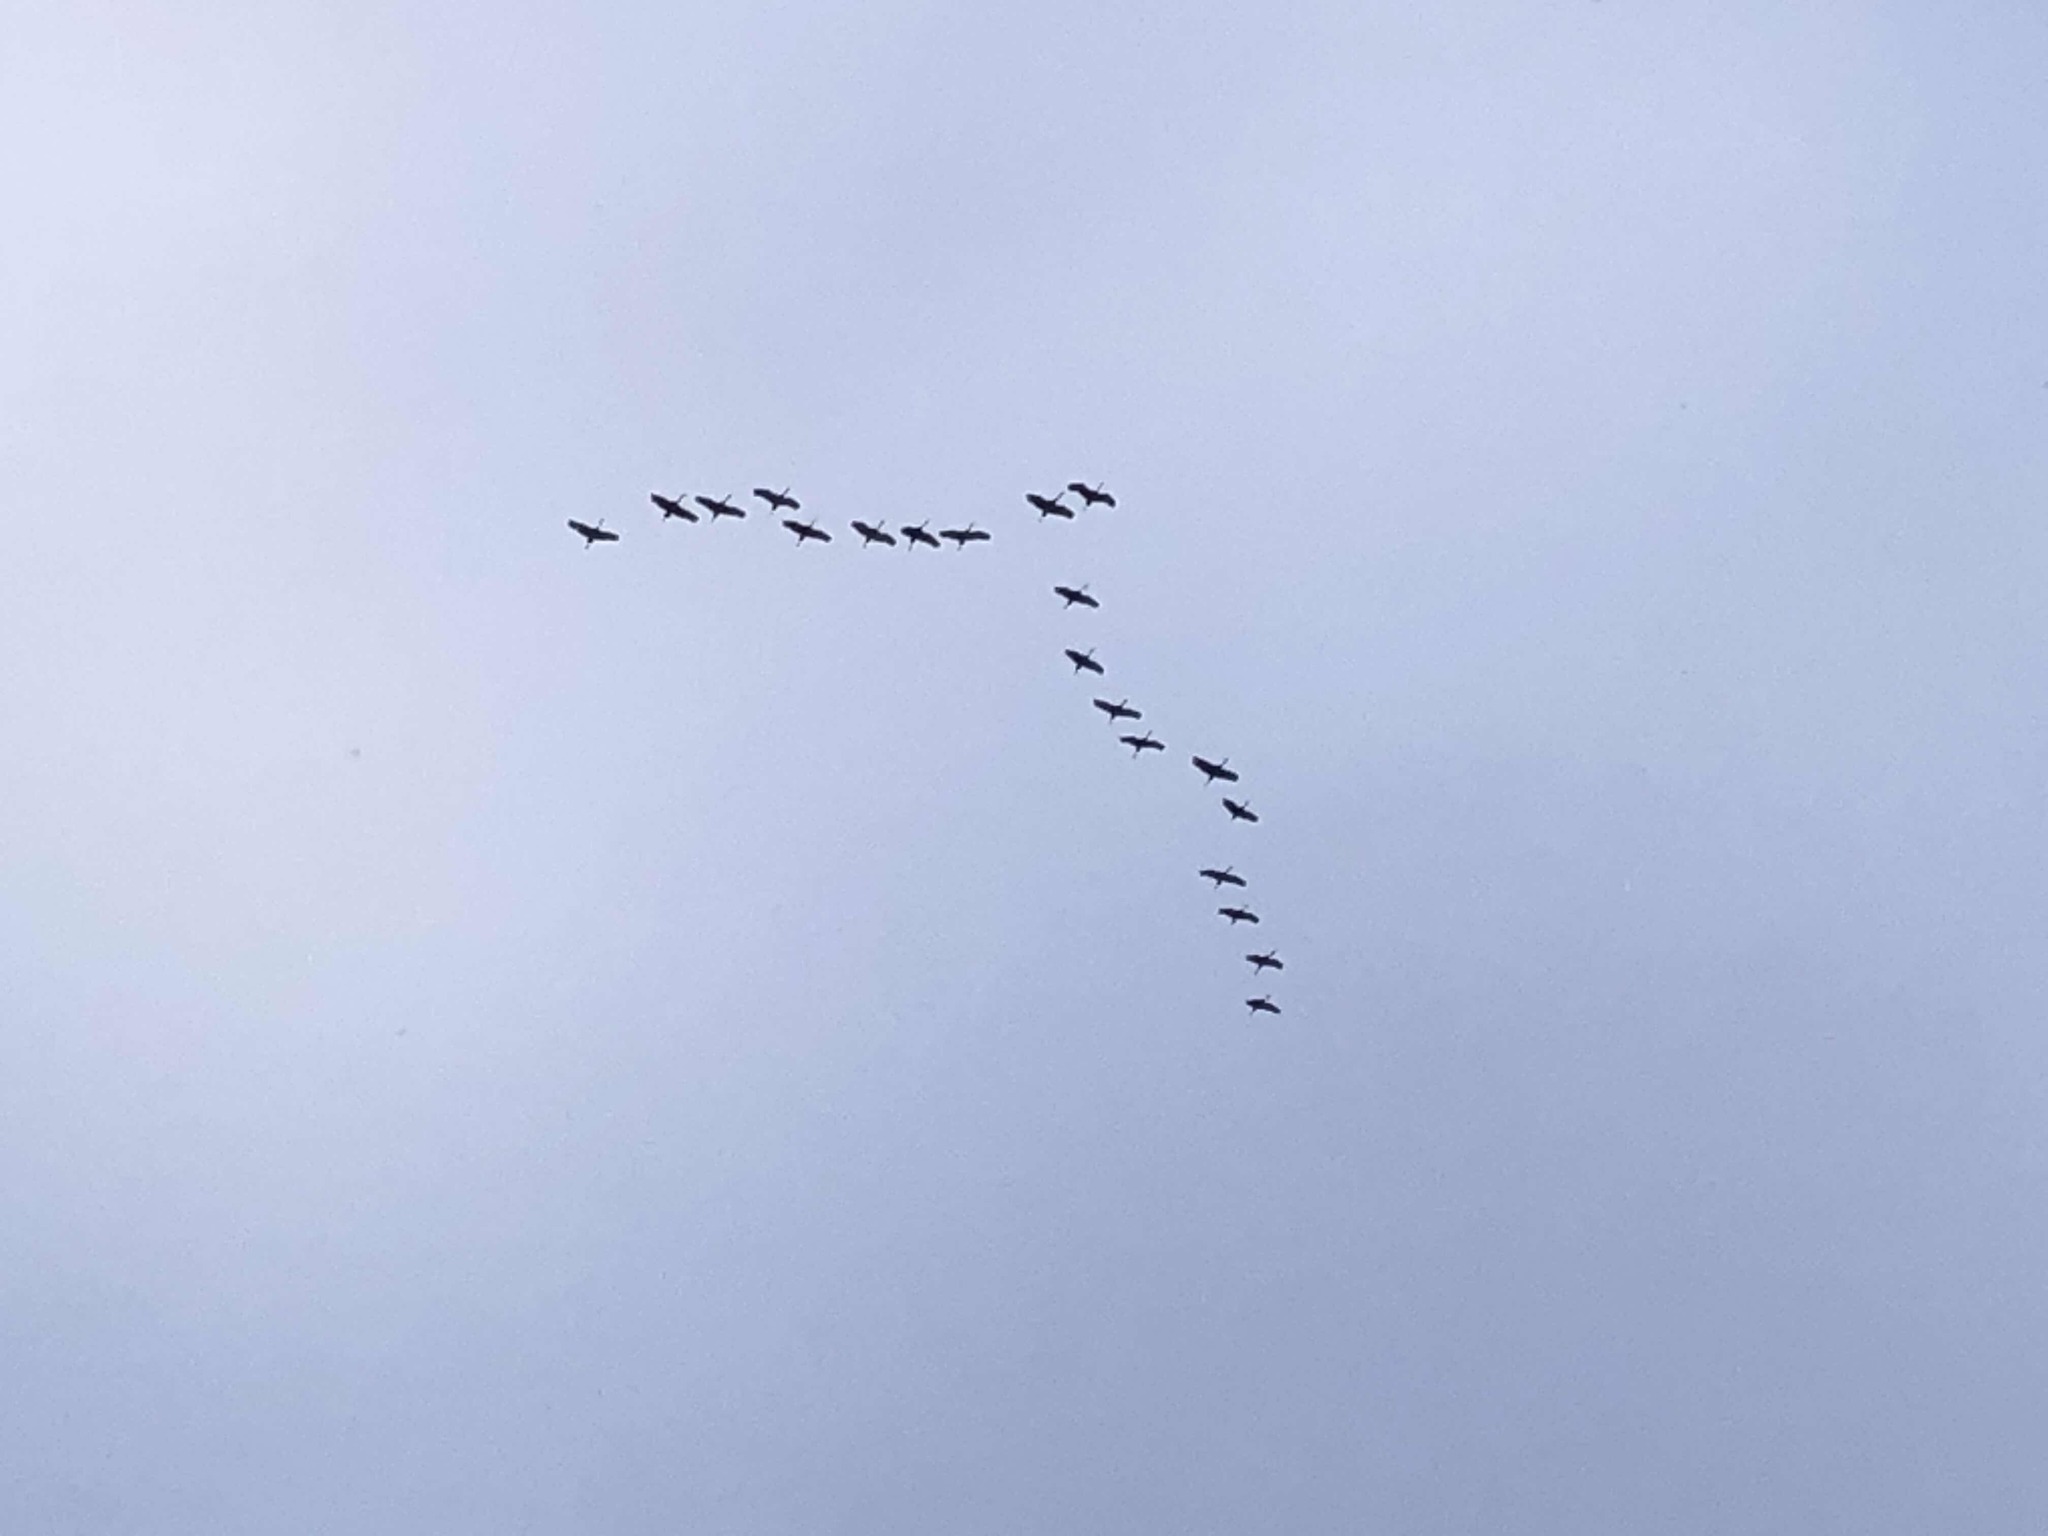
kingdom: Animalia
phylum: Chordata
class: Aves
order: Gruiformes
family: Gruidae
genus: Grus
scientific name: Grus canadensis
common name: Sandhill crane
